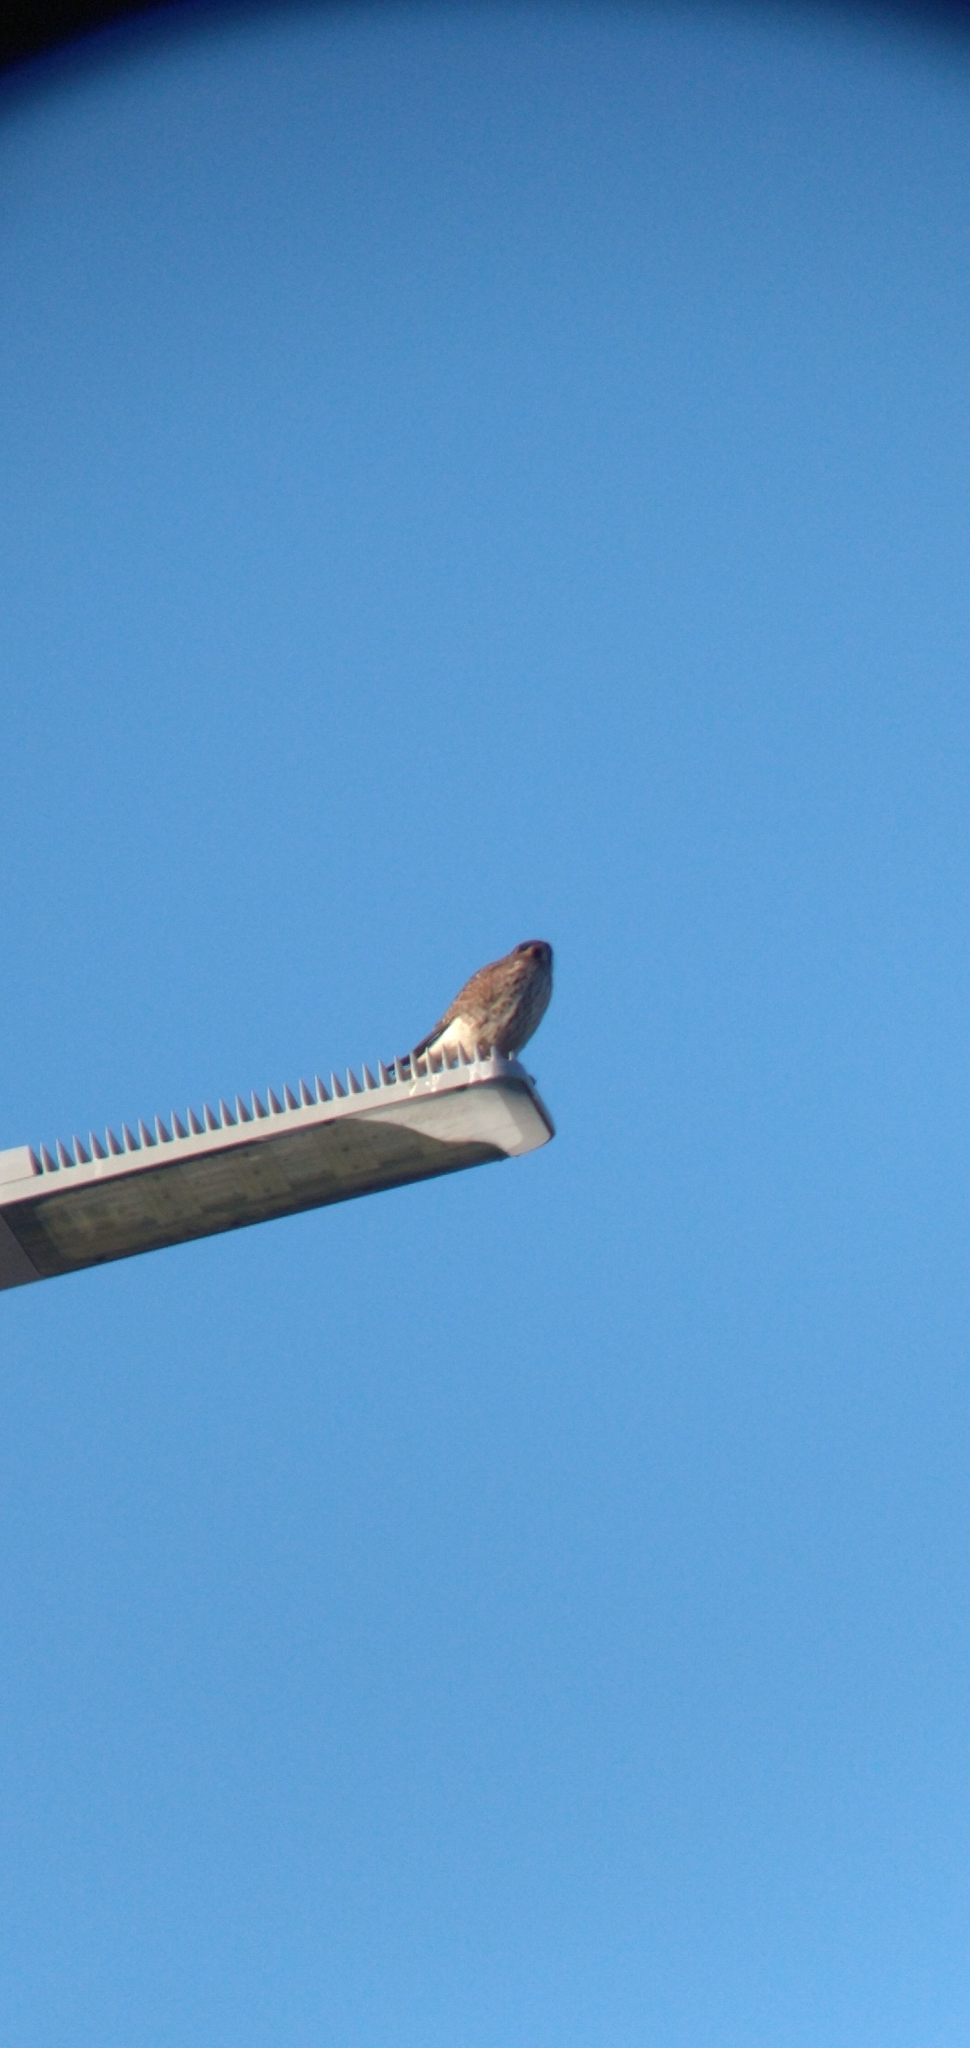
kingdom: Animalia
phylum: Chordata
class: Aves
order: Falconiformes
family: Falconidae
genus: Falco
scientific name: Falco sparverius
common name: American kestrel
